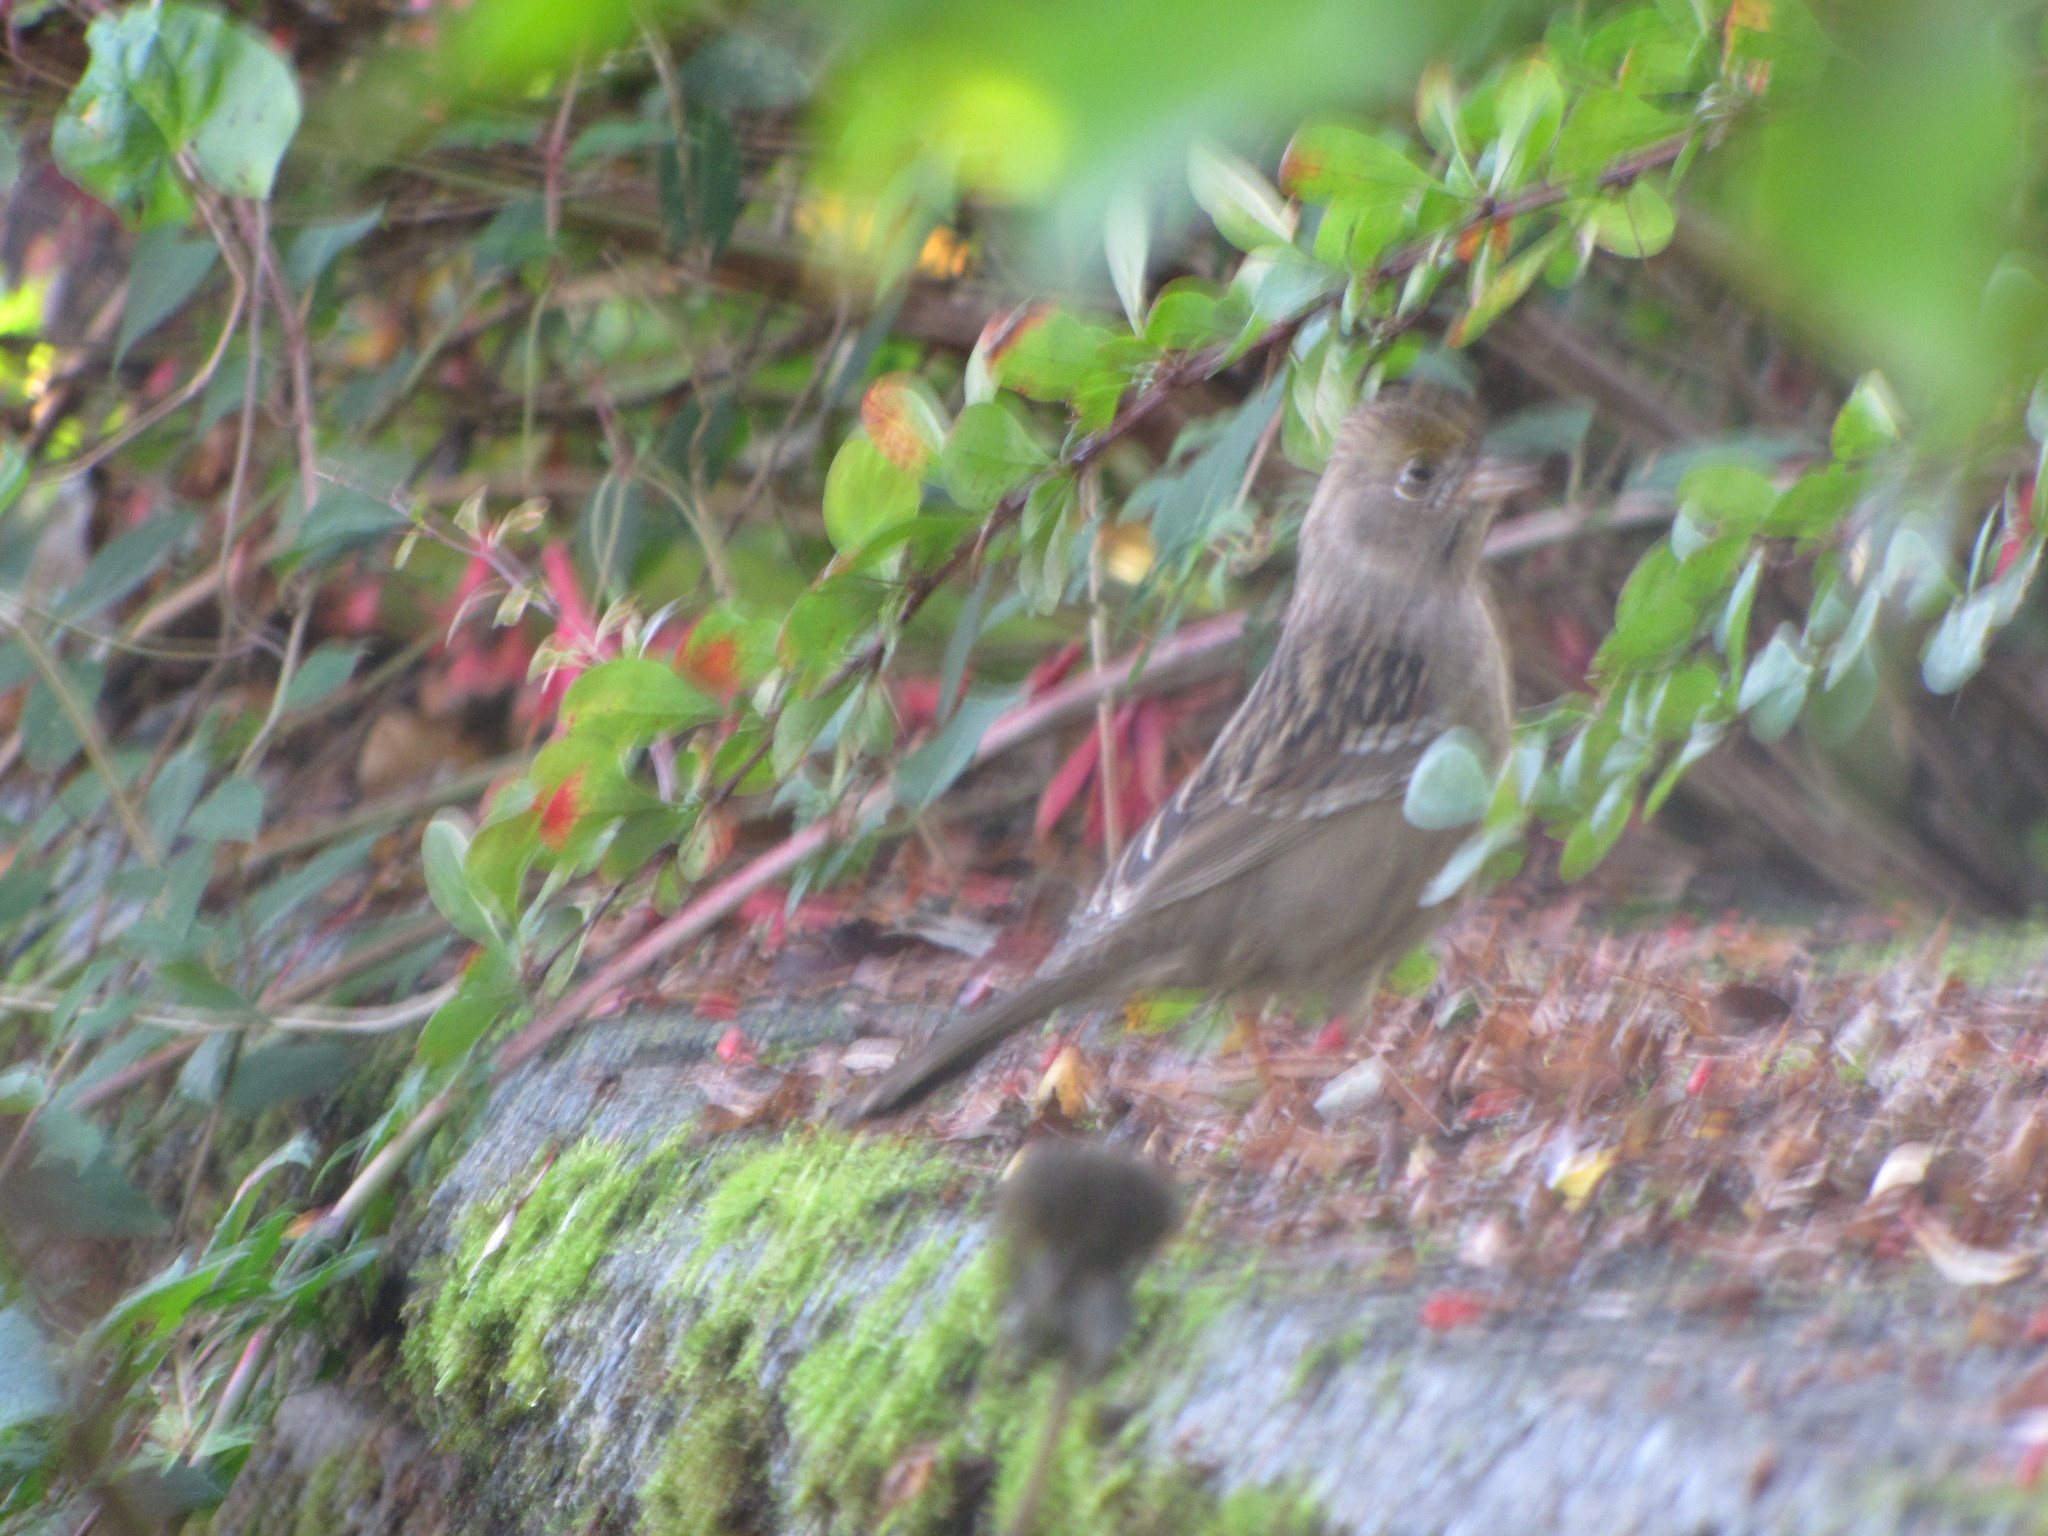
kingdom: Animalia
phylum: Chordata
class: Aves
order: Passeriformes
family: Passerellidae
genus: Zonotrichia
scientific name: Zonotrichia atricapilla
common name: Golden-crowned sparrow
